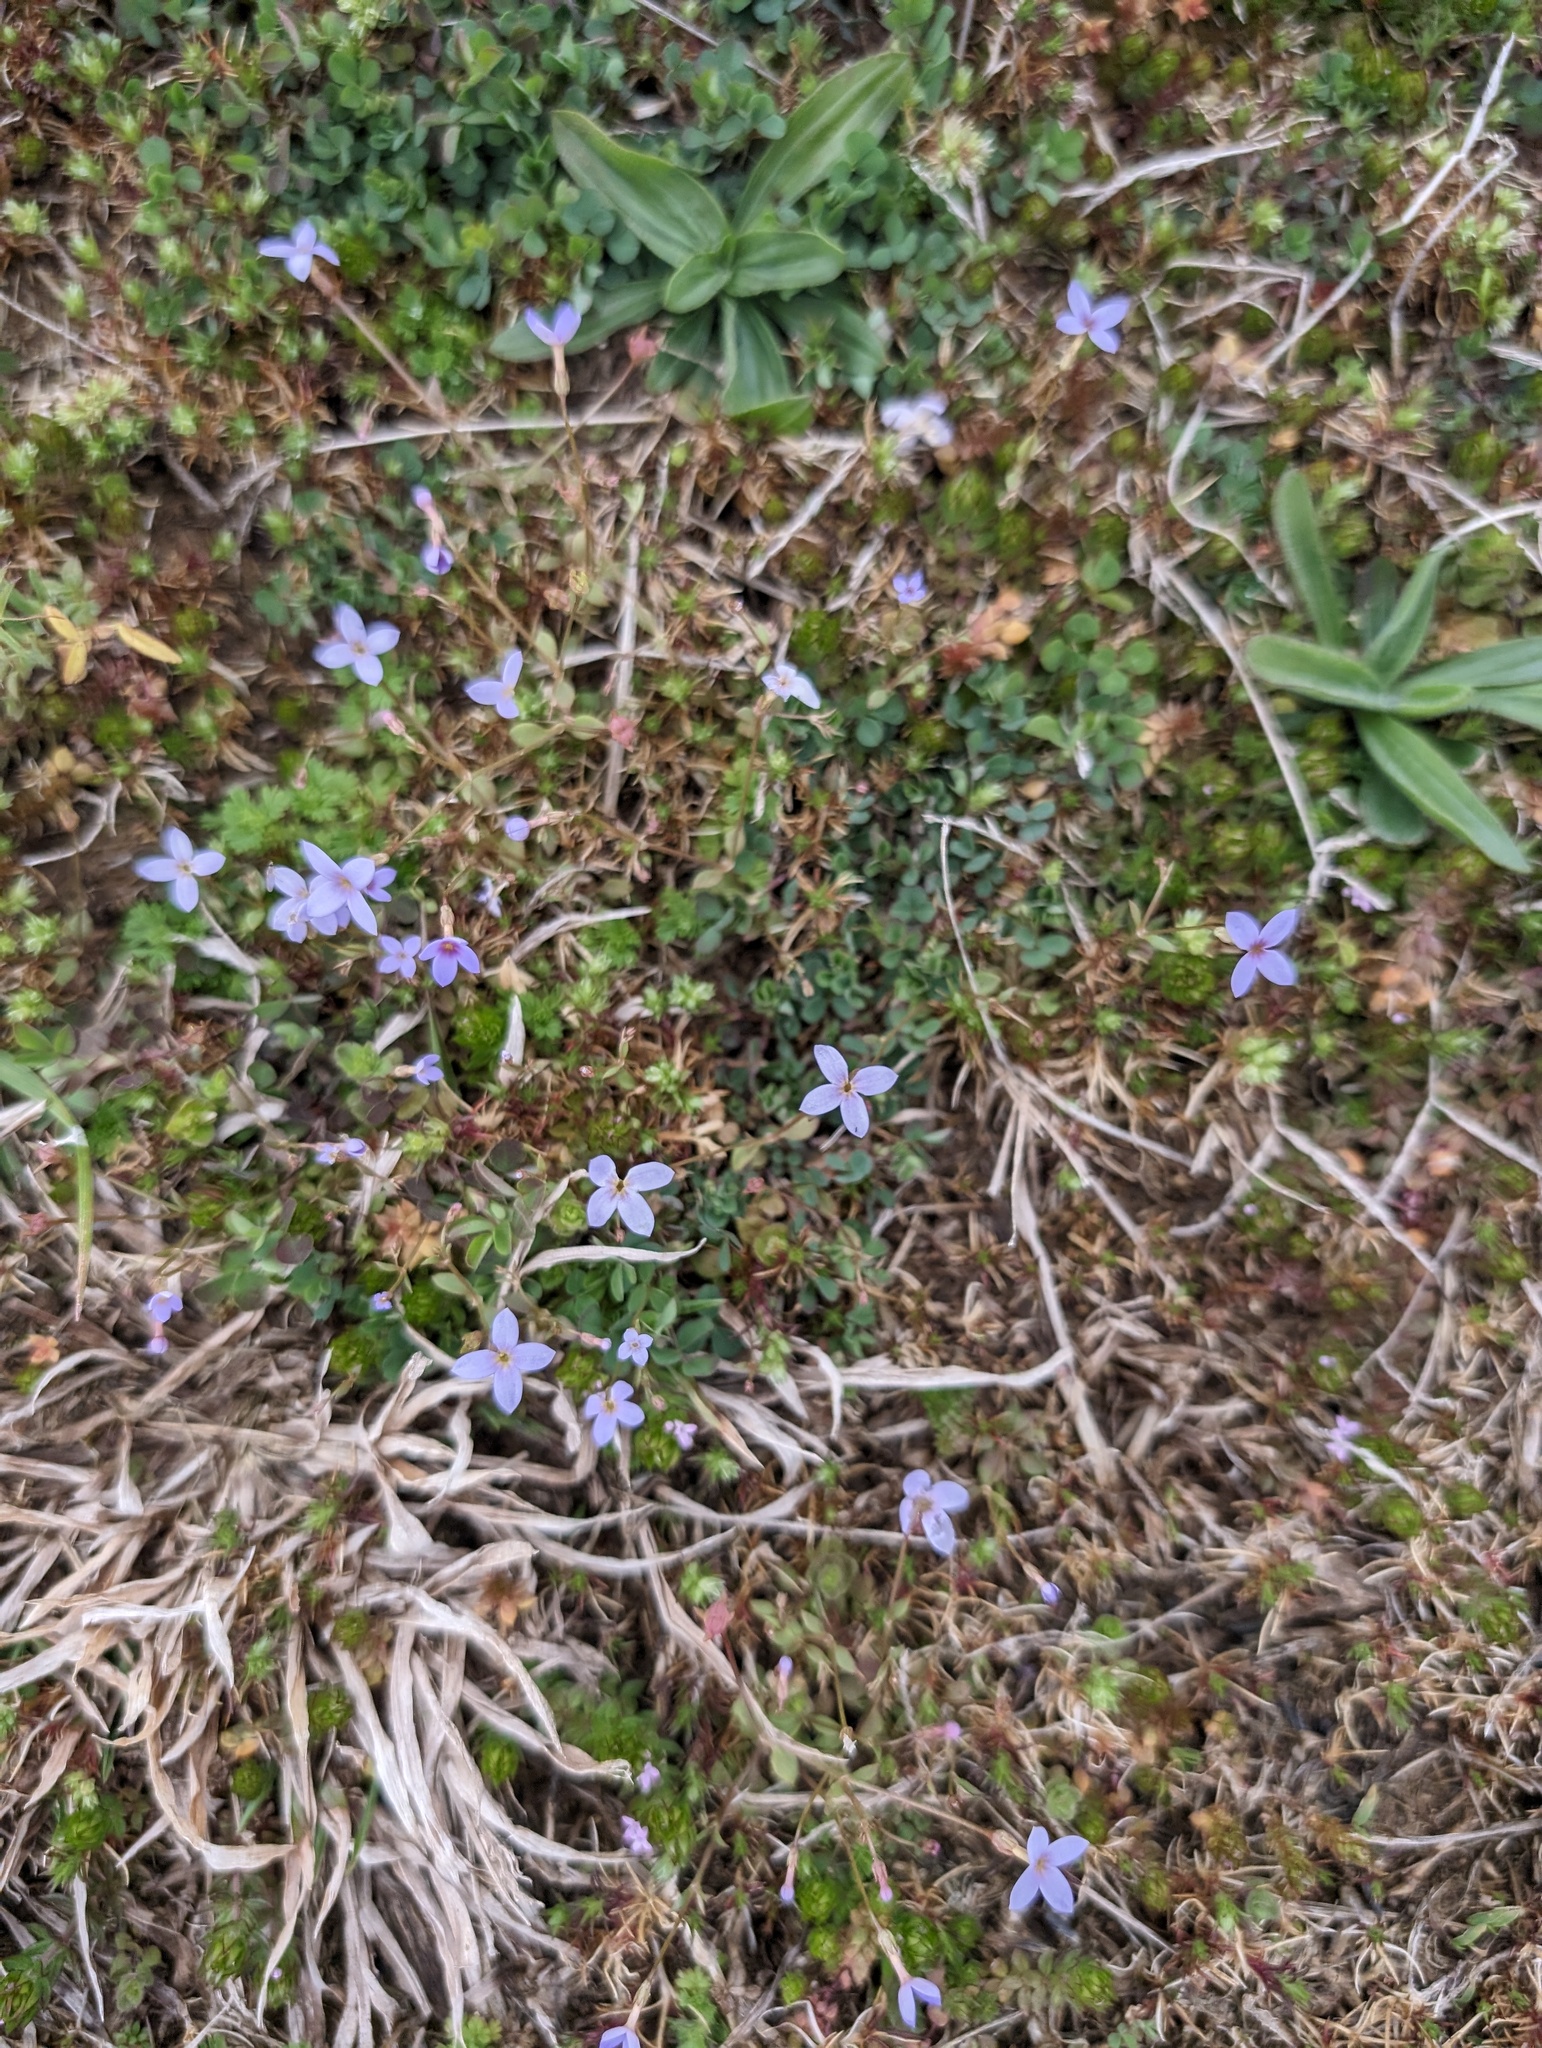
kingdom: Plantae
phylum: Tracheophyta
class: Magnoliopsida
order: Gentianales
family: Rubiaceae
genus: Houstonia
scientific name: Houstonia pusilla
